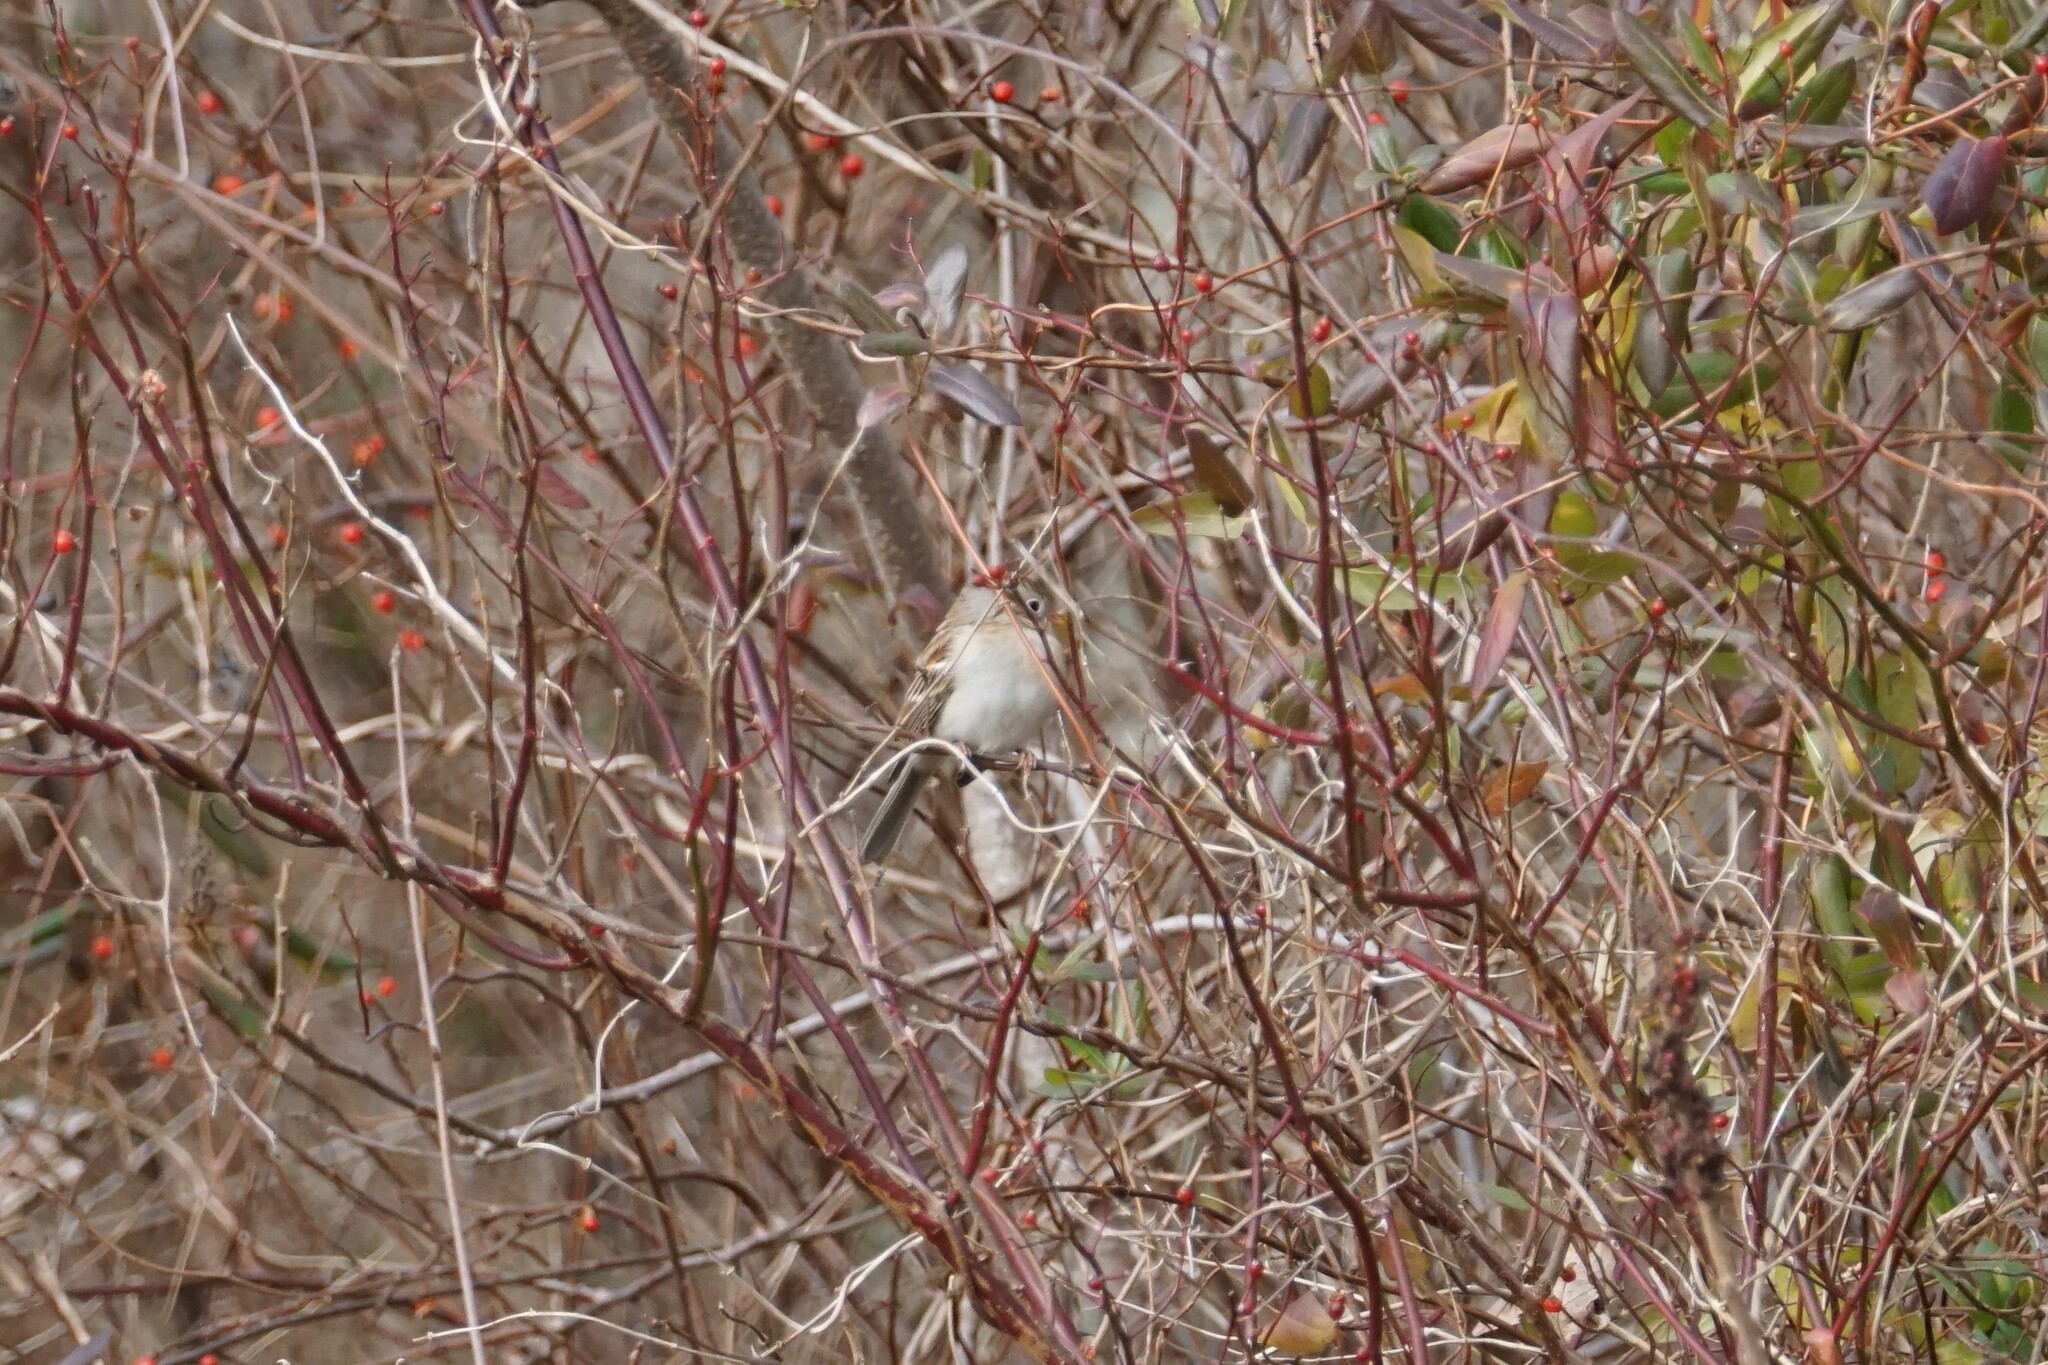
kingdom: Animalia
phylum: Chordata
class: Aves
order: Passeriformes
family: Passerellidae
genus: Spizella
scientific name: Spizella pusilla
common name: Field sparrow
